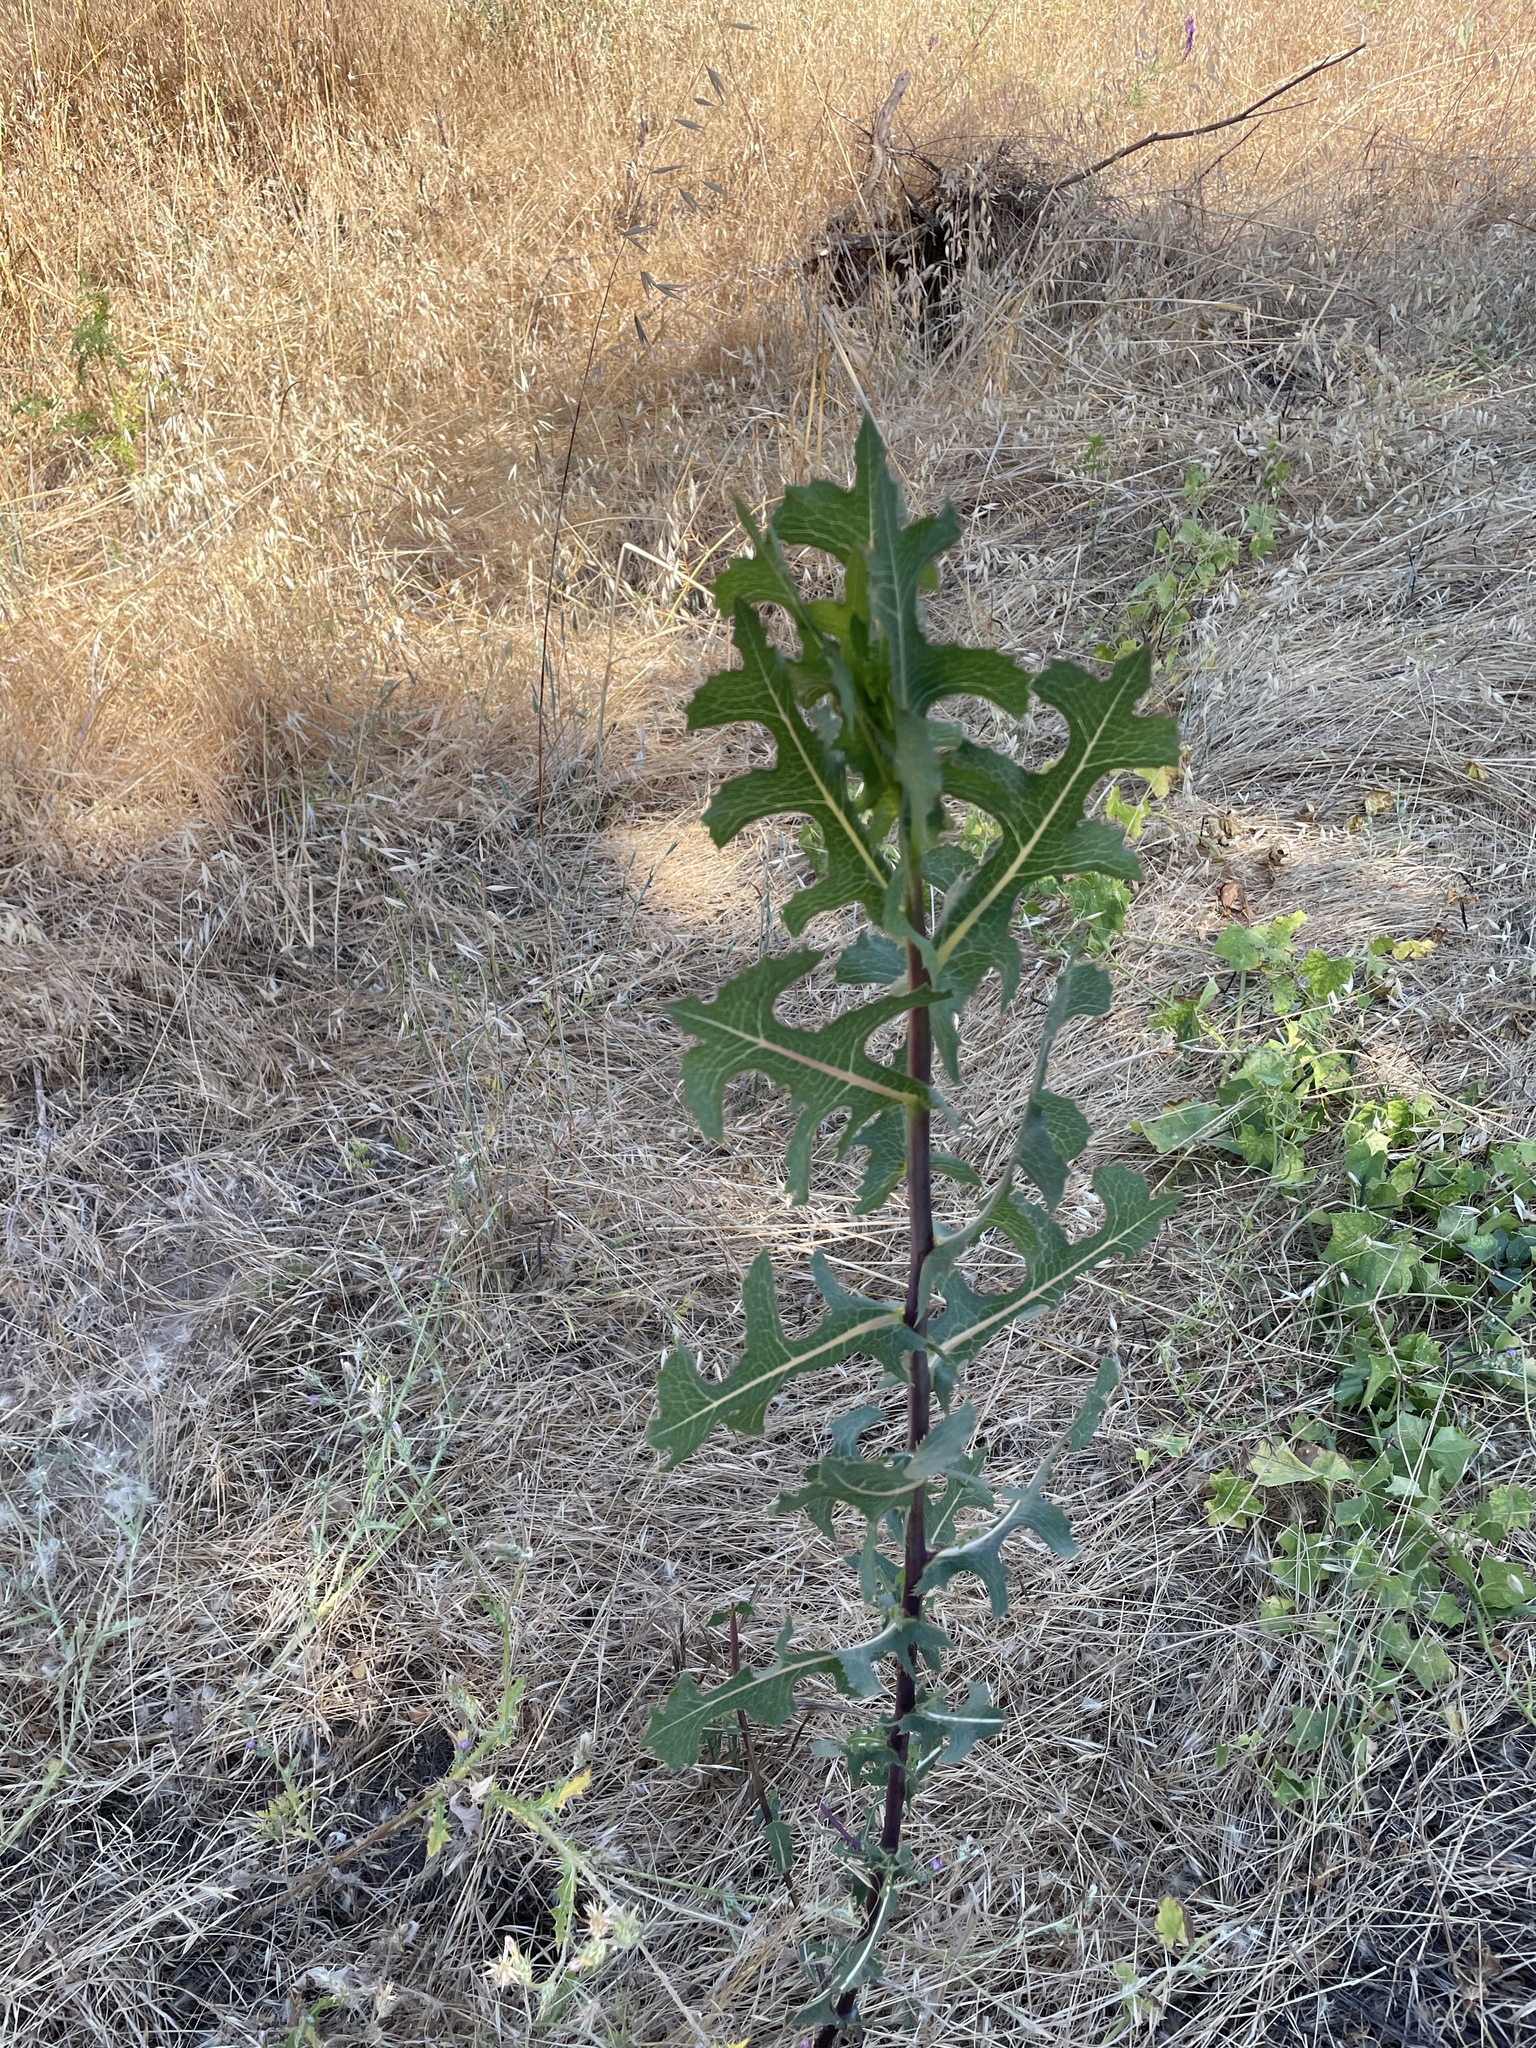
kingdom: Plantae
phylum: Tracheophyta
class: Magnoliopsida
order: Asterales
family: Asteraceae
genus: Lactuca
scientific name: Lactuca serriola
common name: Prickly lettuce
